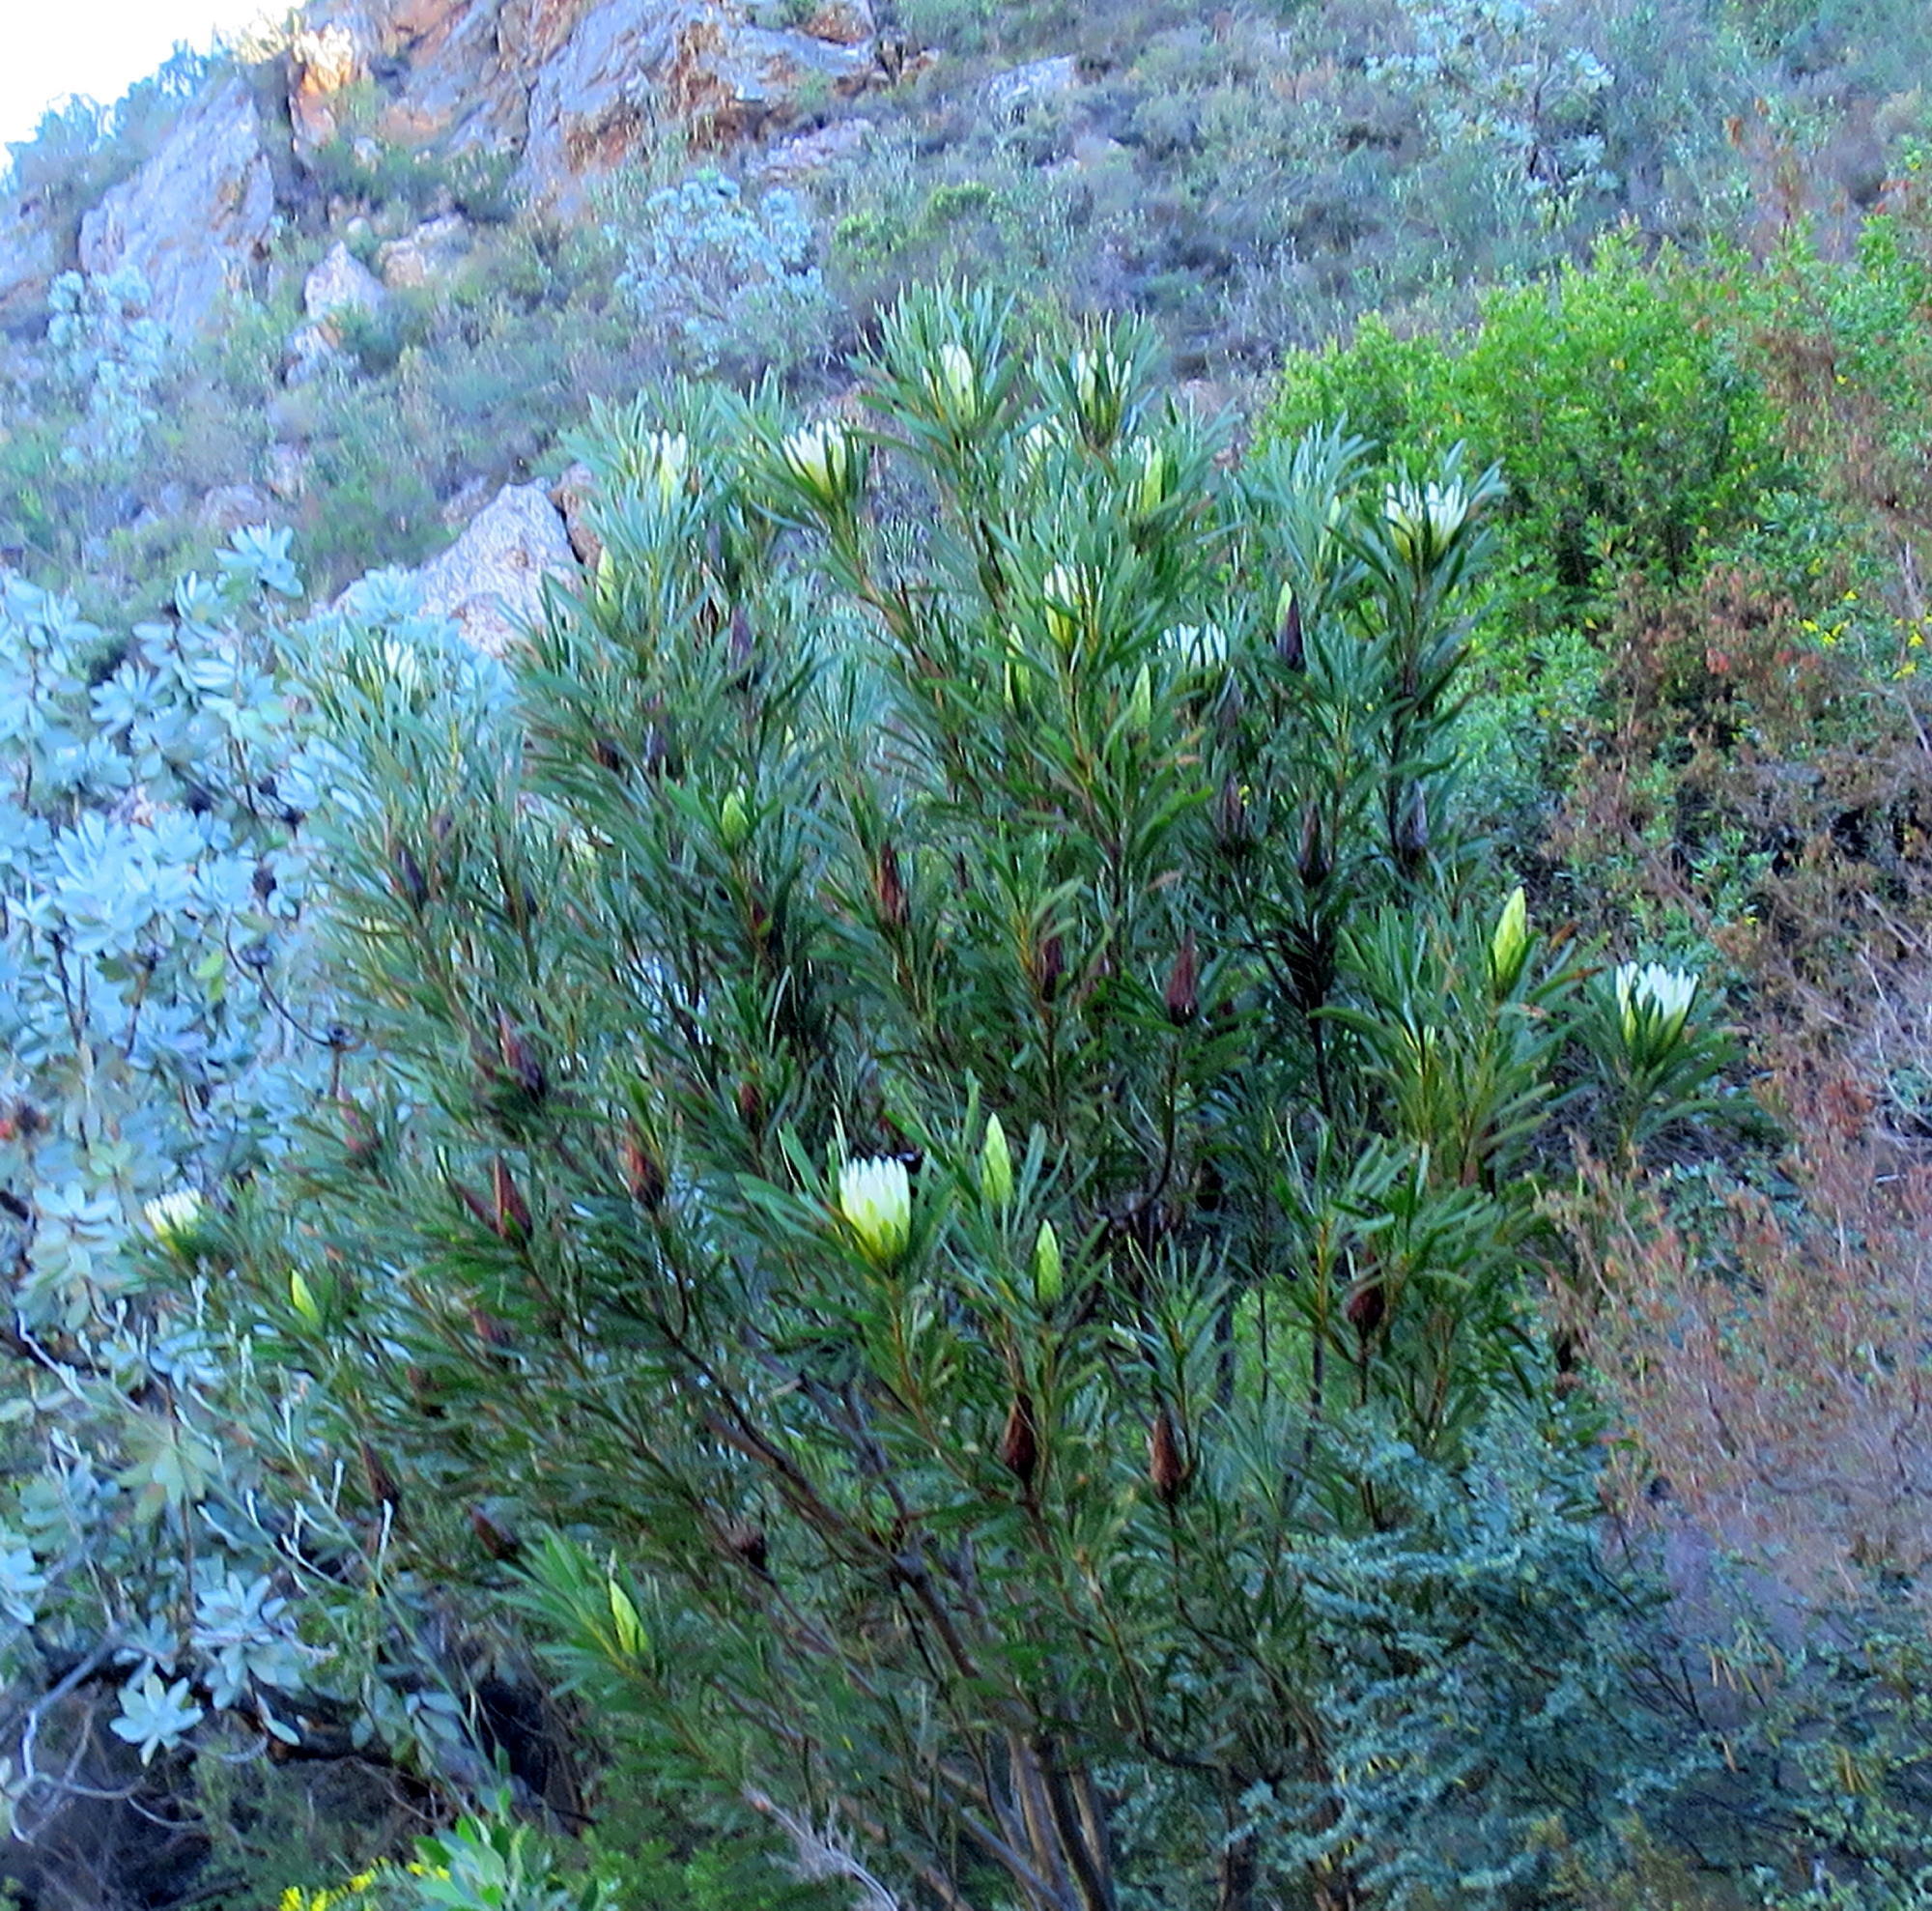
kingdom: Plantae
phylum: Tracheophyta
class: Magnoliopsida
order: Proteales
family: Proteaceae
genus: Protea
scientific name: Protea repens
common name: Sugarbush
